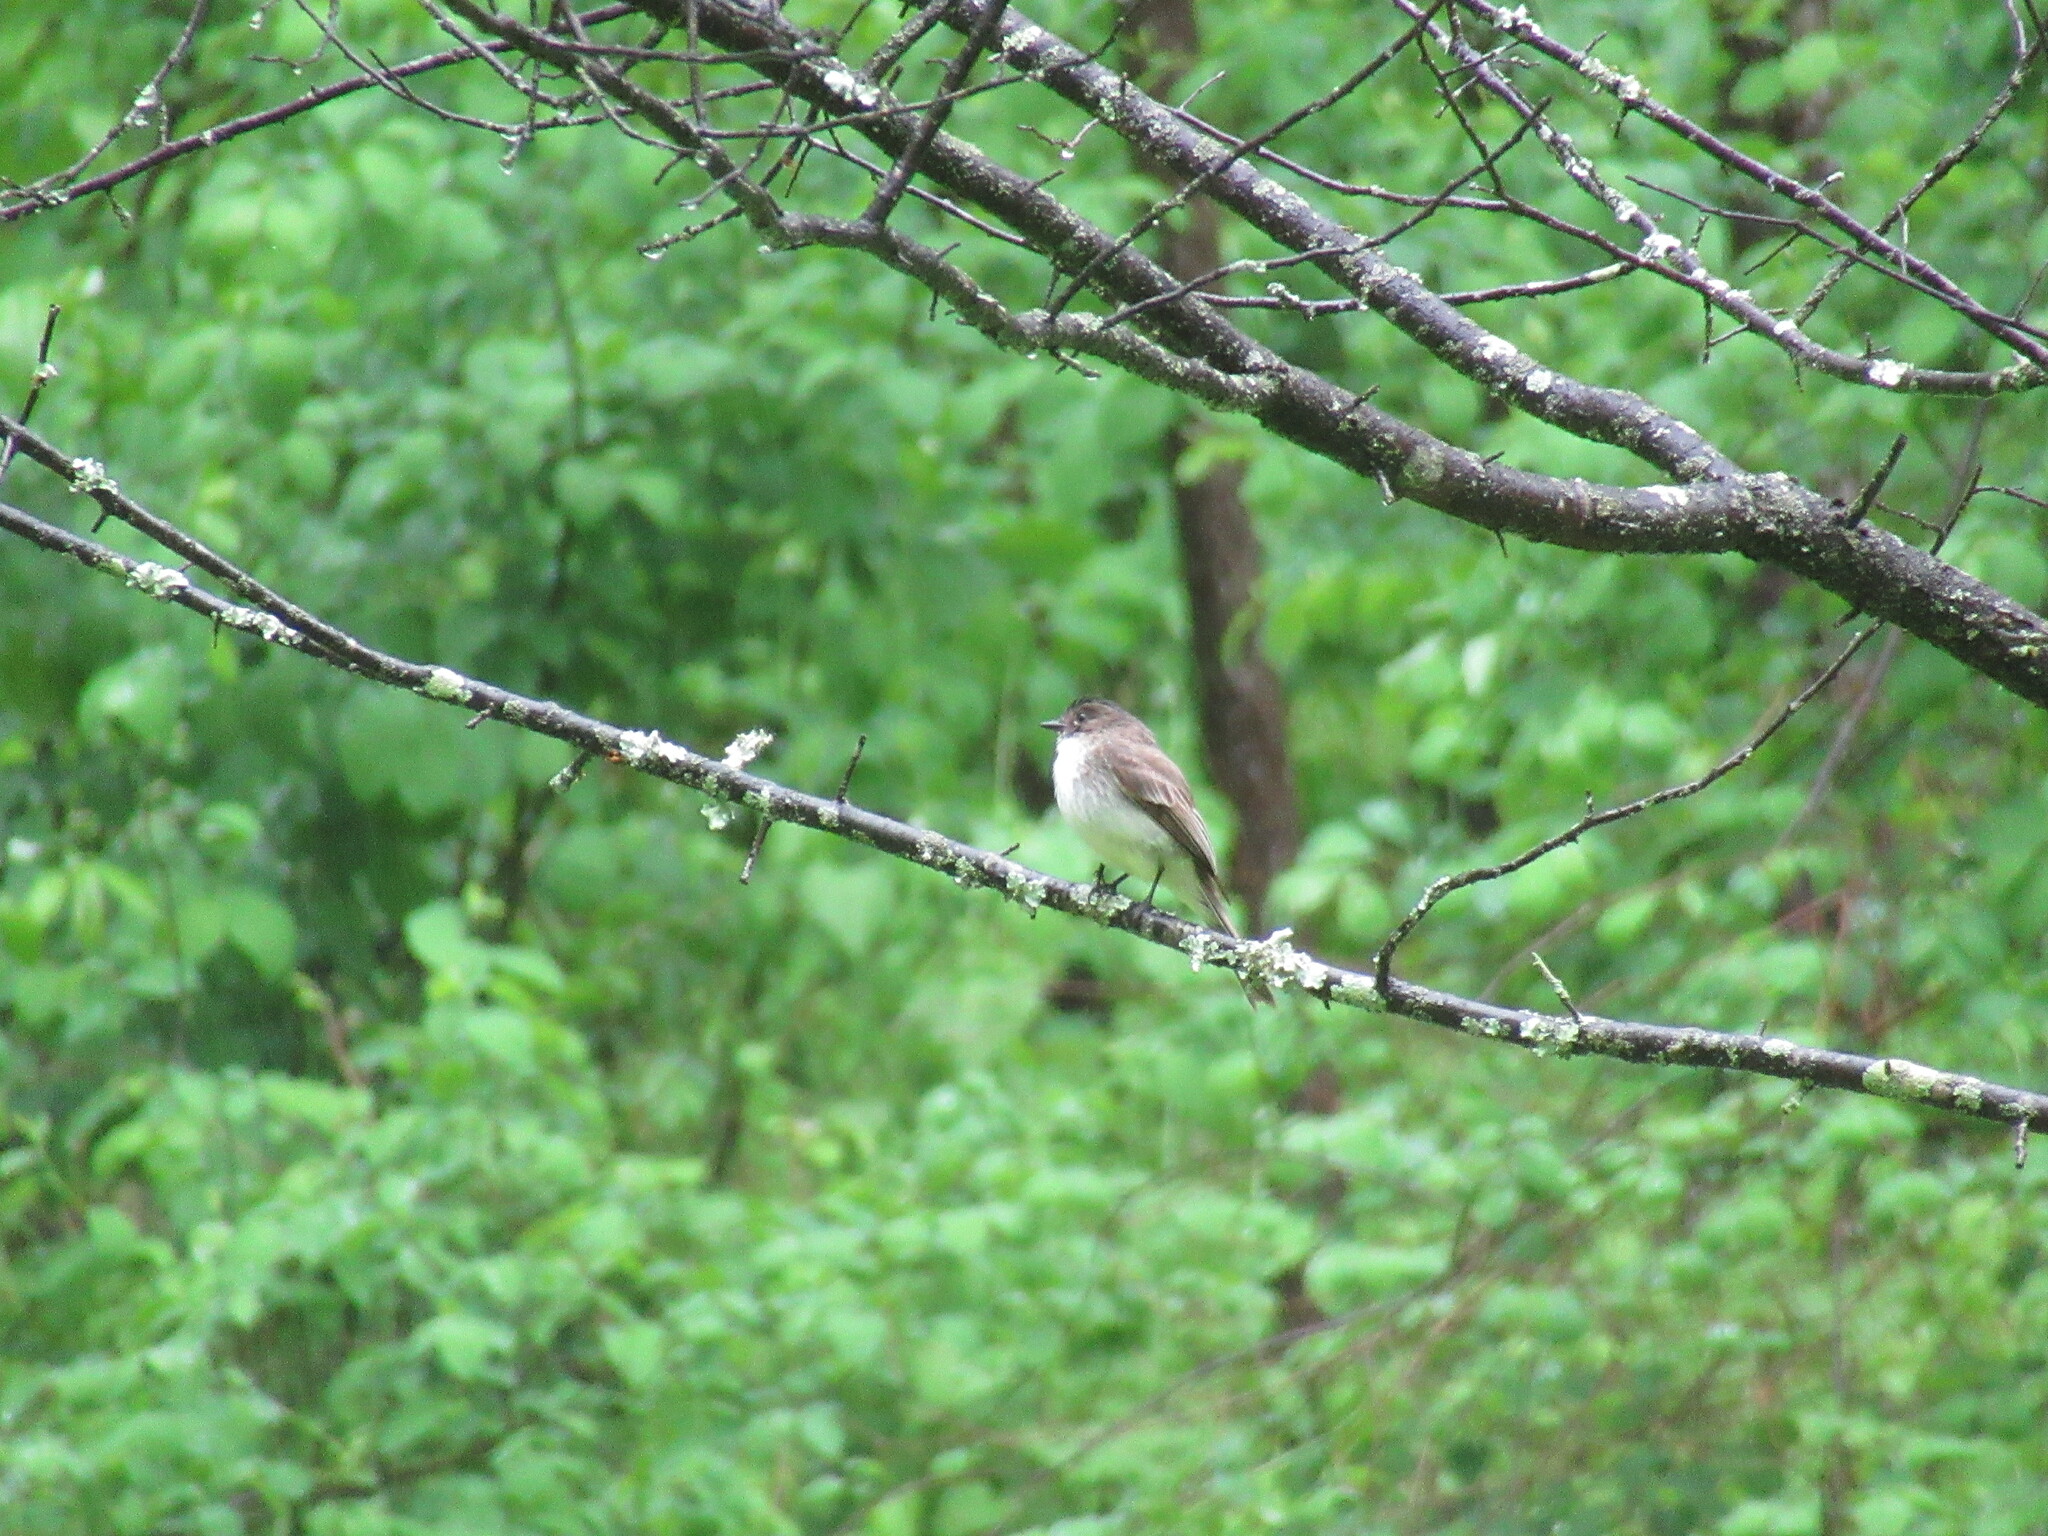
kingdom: Animalia
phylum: Chordata
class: Aves
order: Passeriformes
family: Tyrannidae
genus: Sayornis
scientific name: Sayornis phoebe
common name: Eastern phoebe
